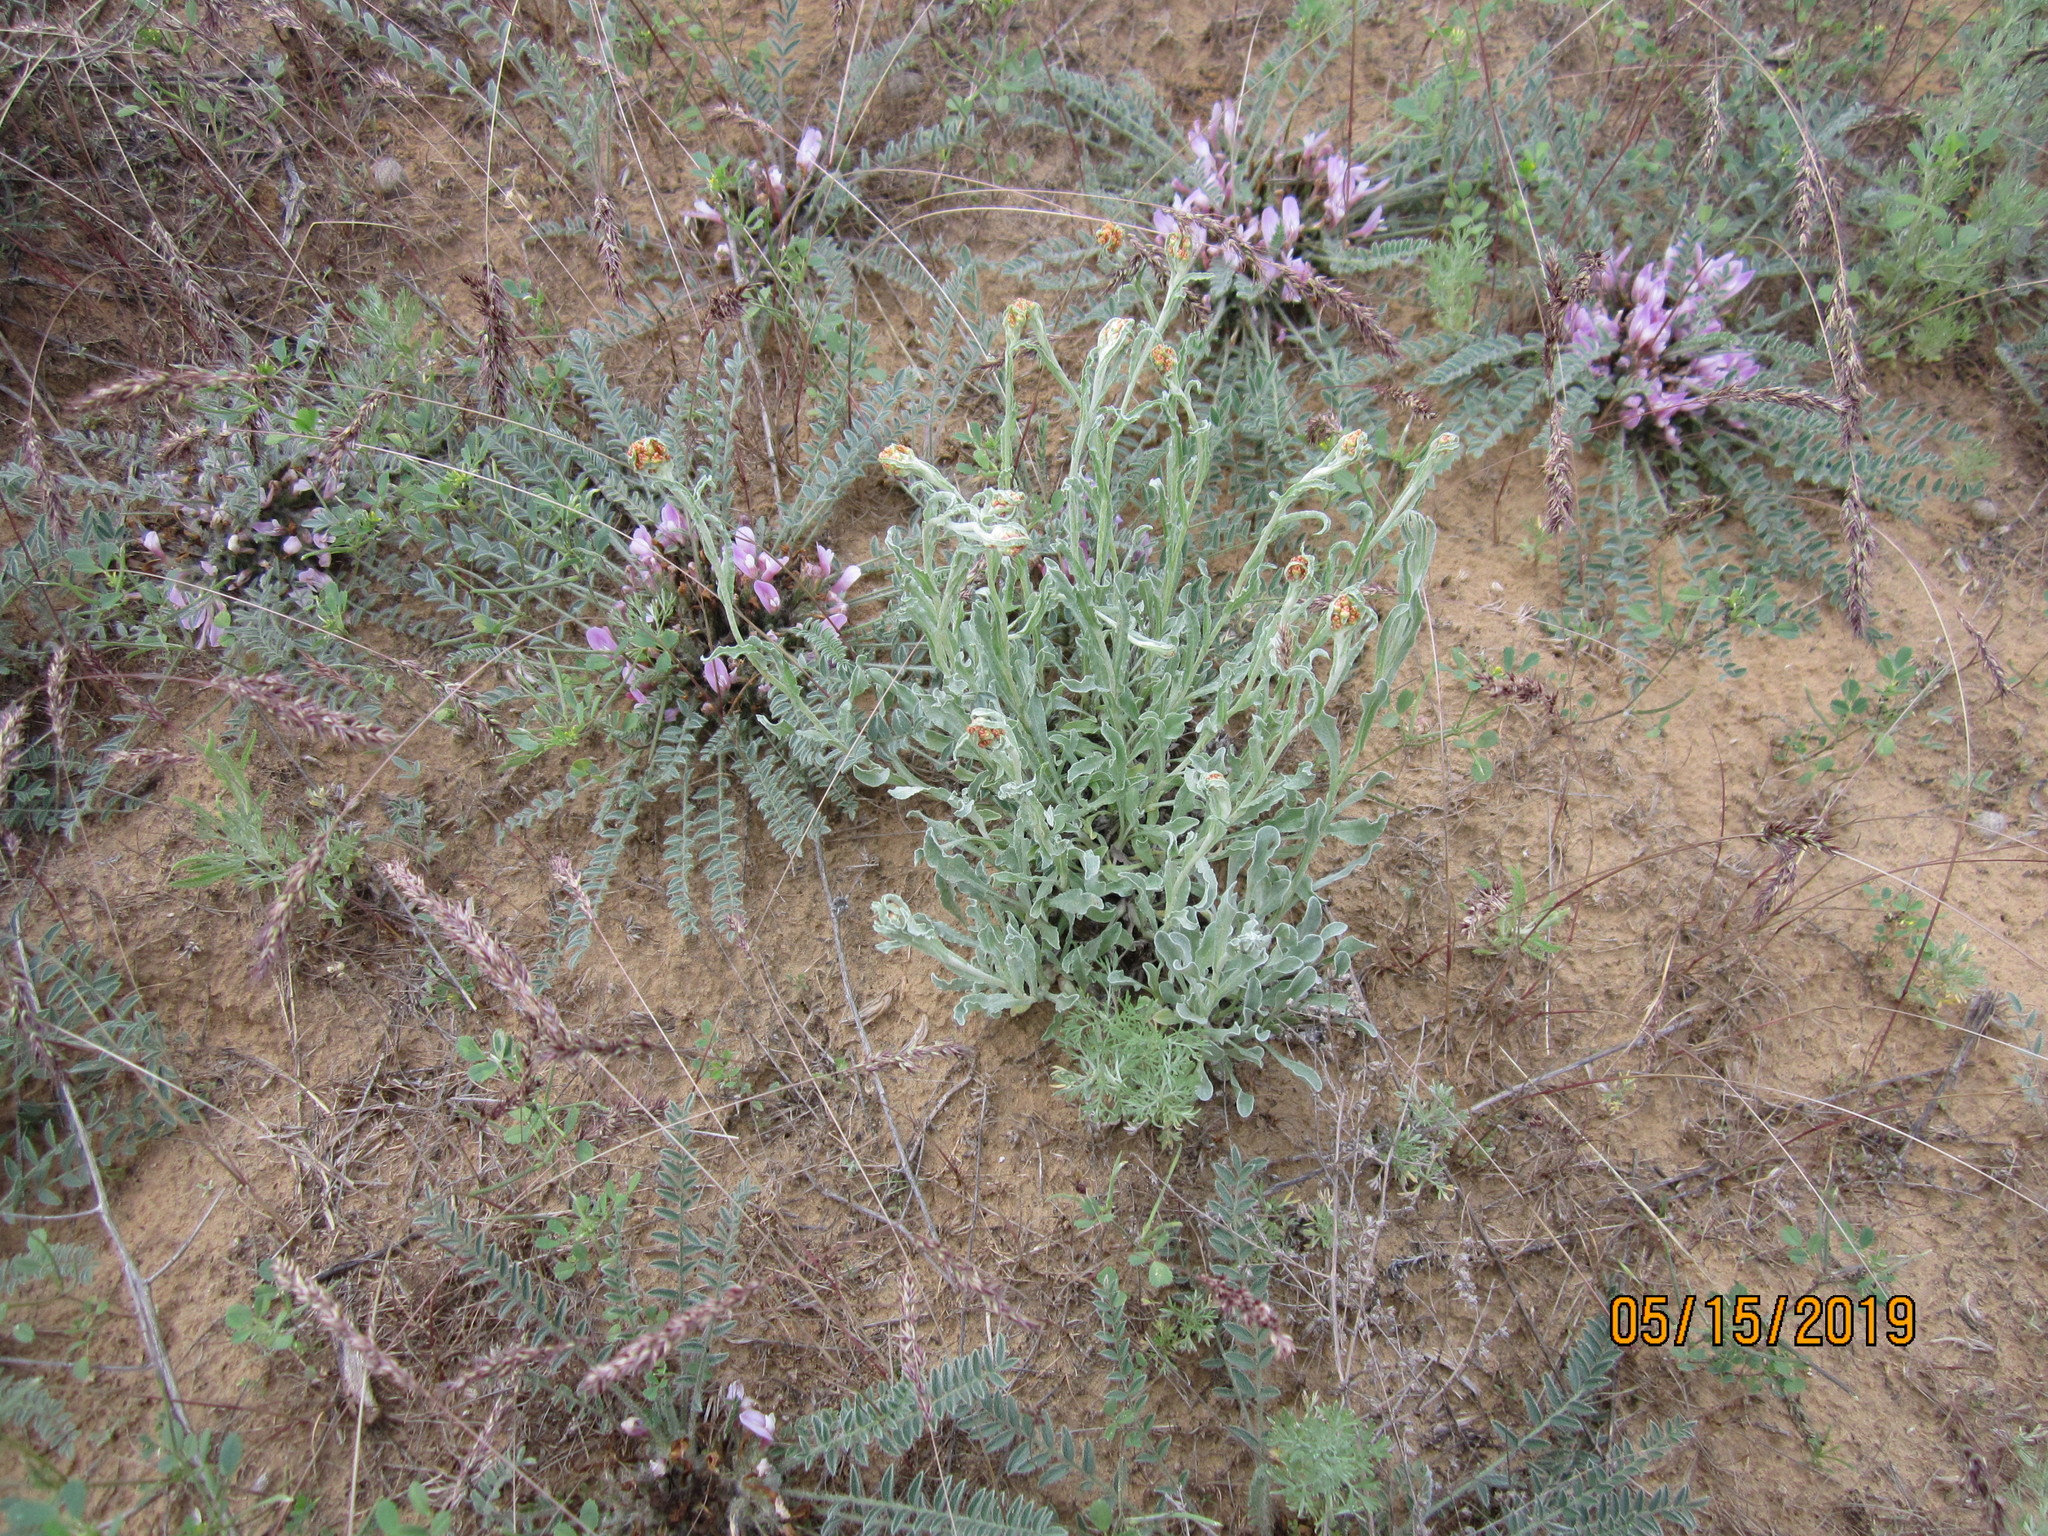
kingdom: Plantae
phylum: Tracheophyta
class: Magnoliopsida
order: Asterales
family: Asteraceae
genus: Helichrysum
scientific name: Helichrysum arenarium
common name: Strawflower
